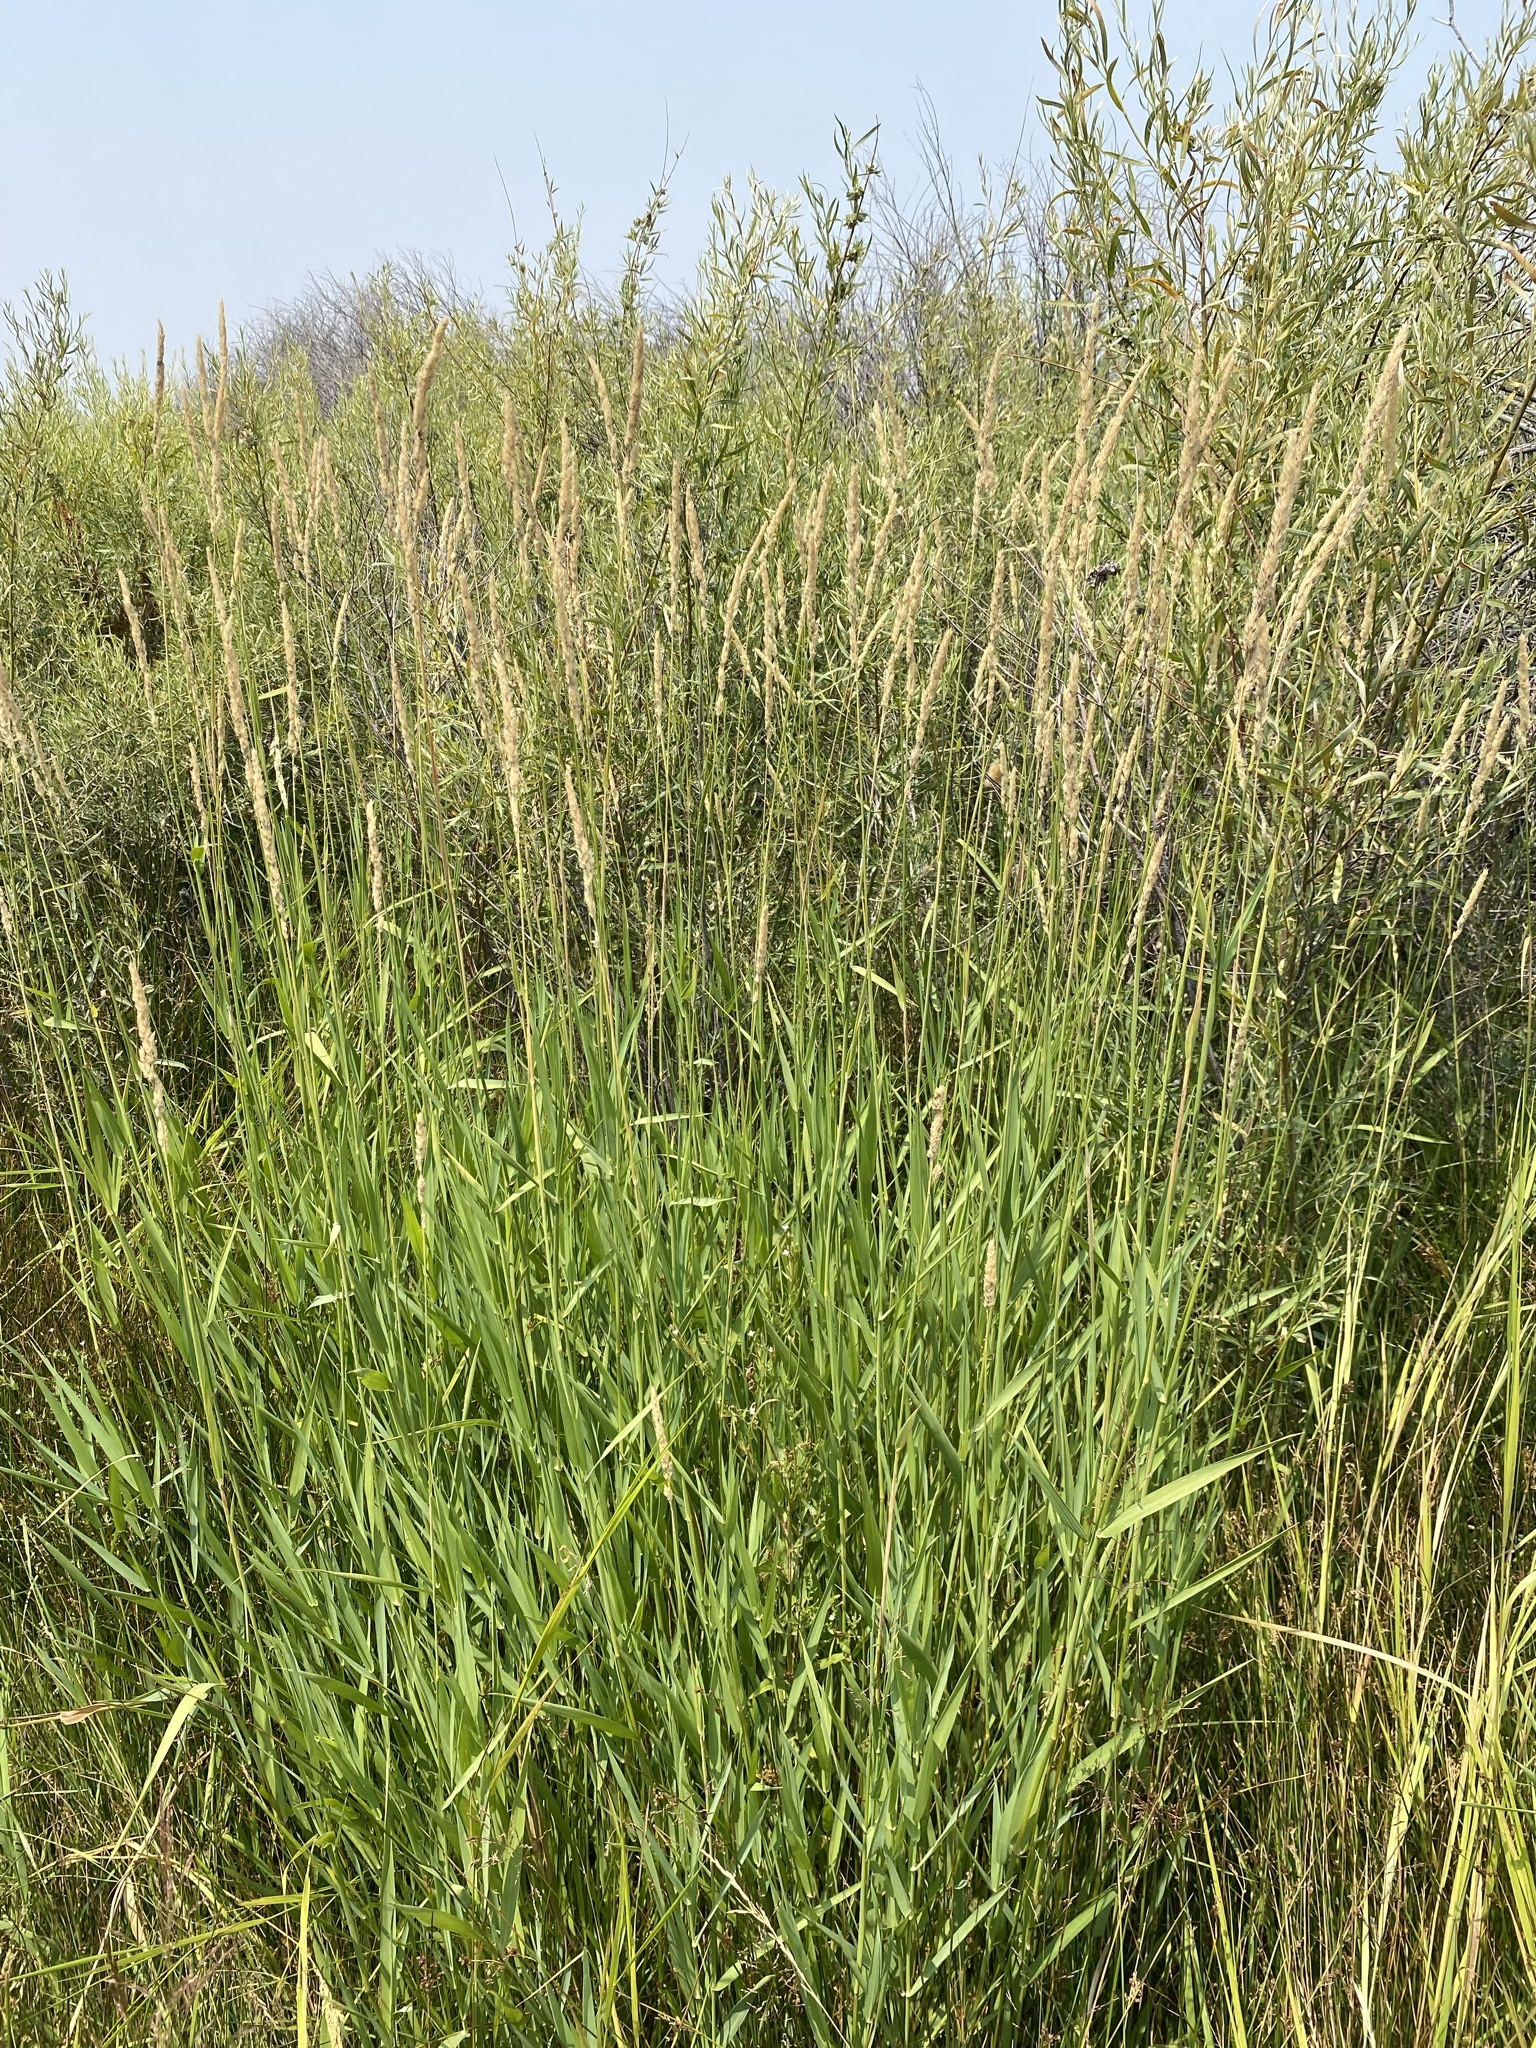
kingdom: Plantae
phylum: Tracheophyta
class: Liliopsida
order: Poales
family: Poaceae
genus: Phalaris
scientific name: Phalaris arundinacea
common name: Reed canary-grass
